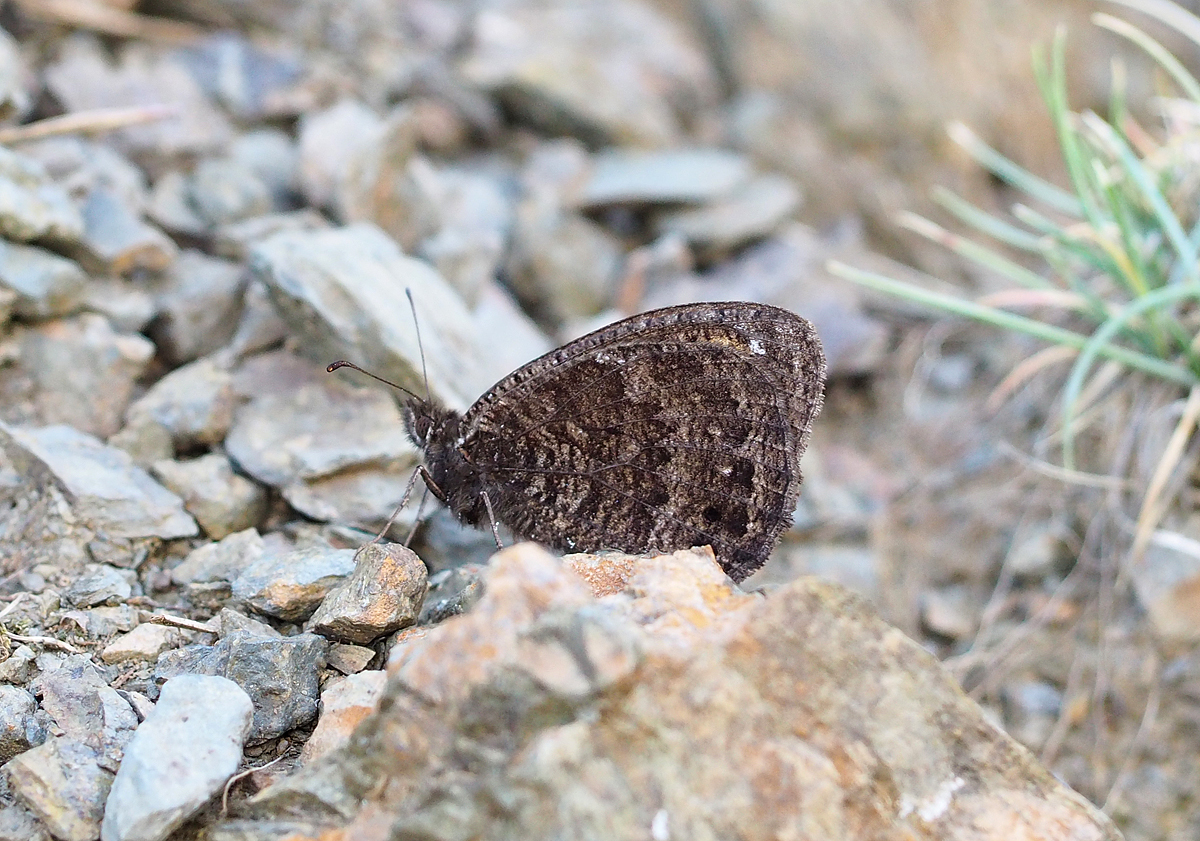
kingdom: Animalia
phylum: Arthropoda
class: Insecta
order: Lepidoptera
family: Nymphalidae
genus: Satyrus
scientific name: Satyrus actaea
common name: Black satyr
